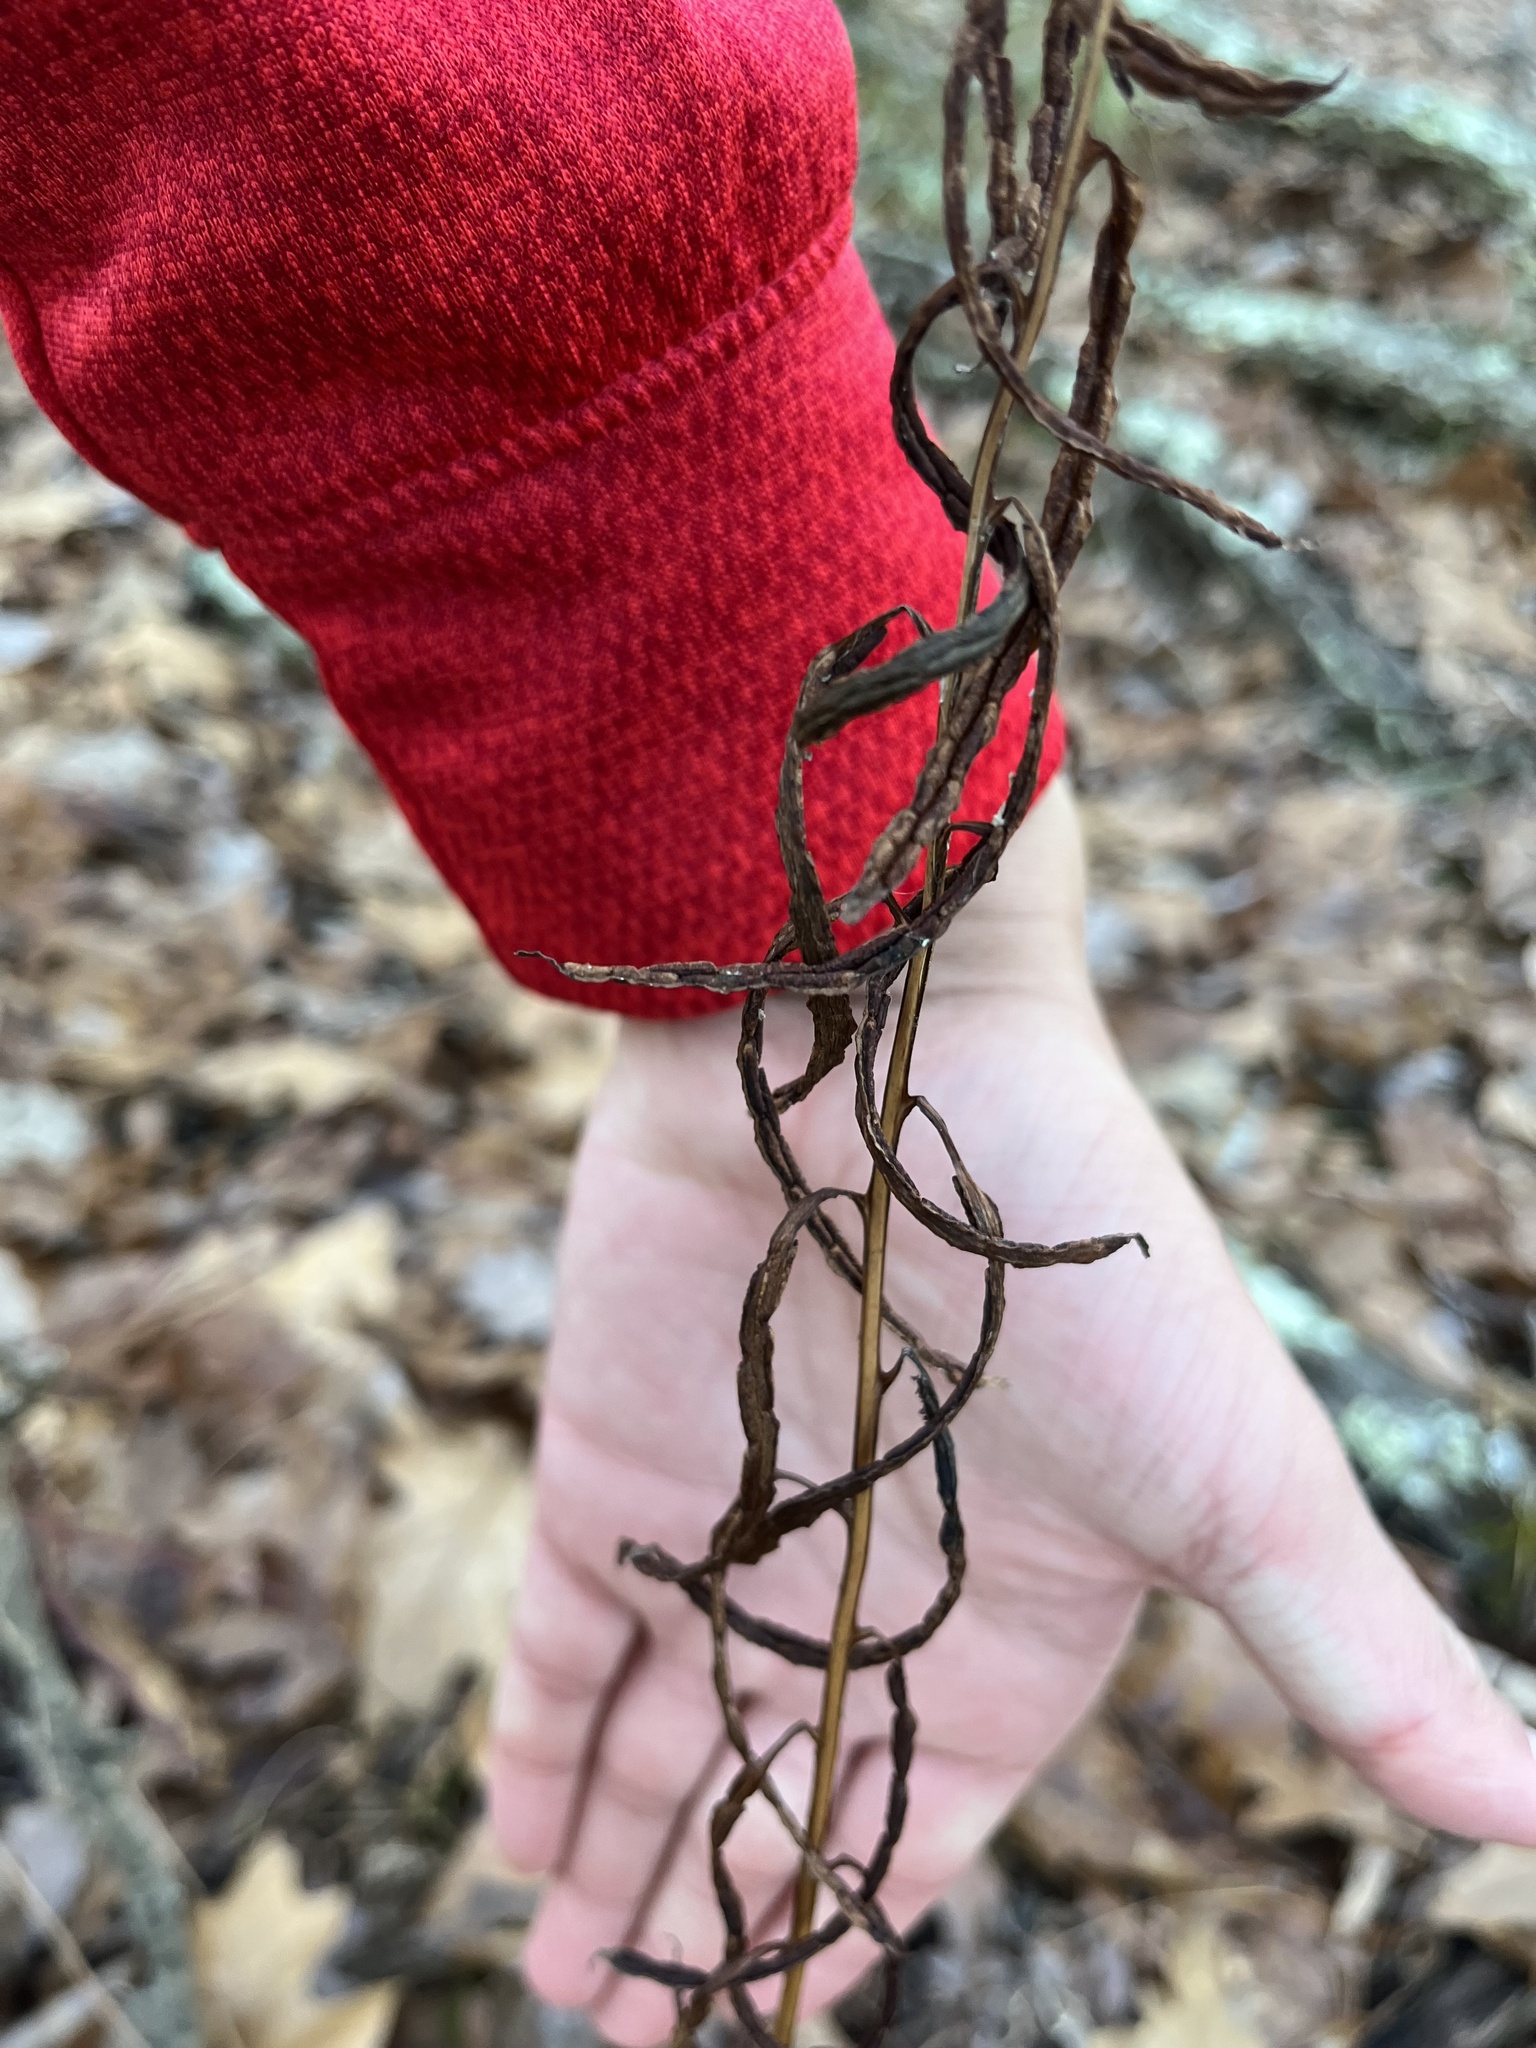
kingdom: Plantae
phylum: Tracheophyta
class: Polypodiopsida
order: Polypodiales
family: Blechnaceae
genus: Lorinseria
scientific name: Lorinseria areolata
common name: Dwarf chain fern
